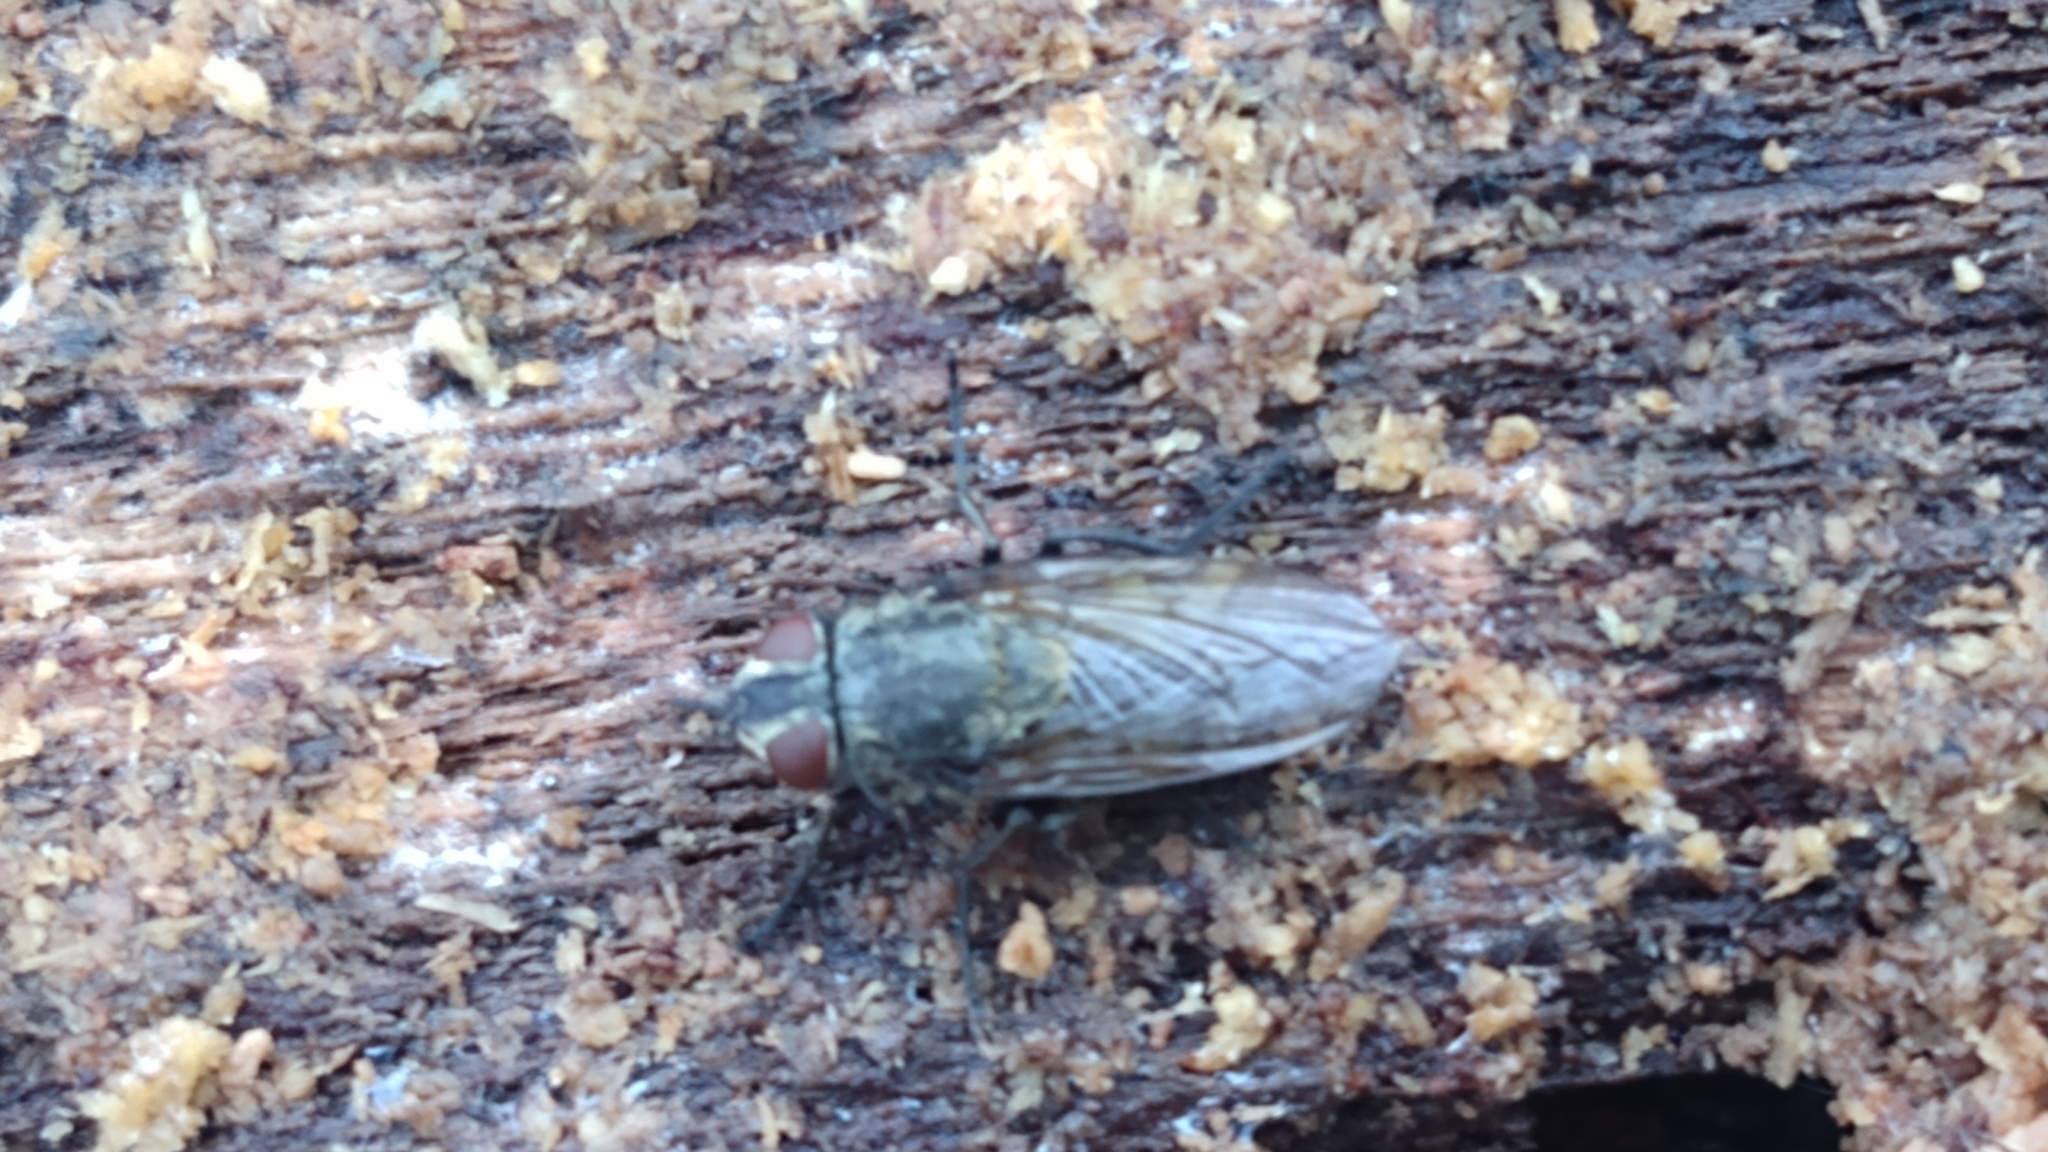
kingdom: Animalia
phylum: Arthropoda
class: Insecta
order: Diptera
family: Polleniidae
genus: Pollenia
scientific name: Pollenia
